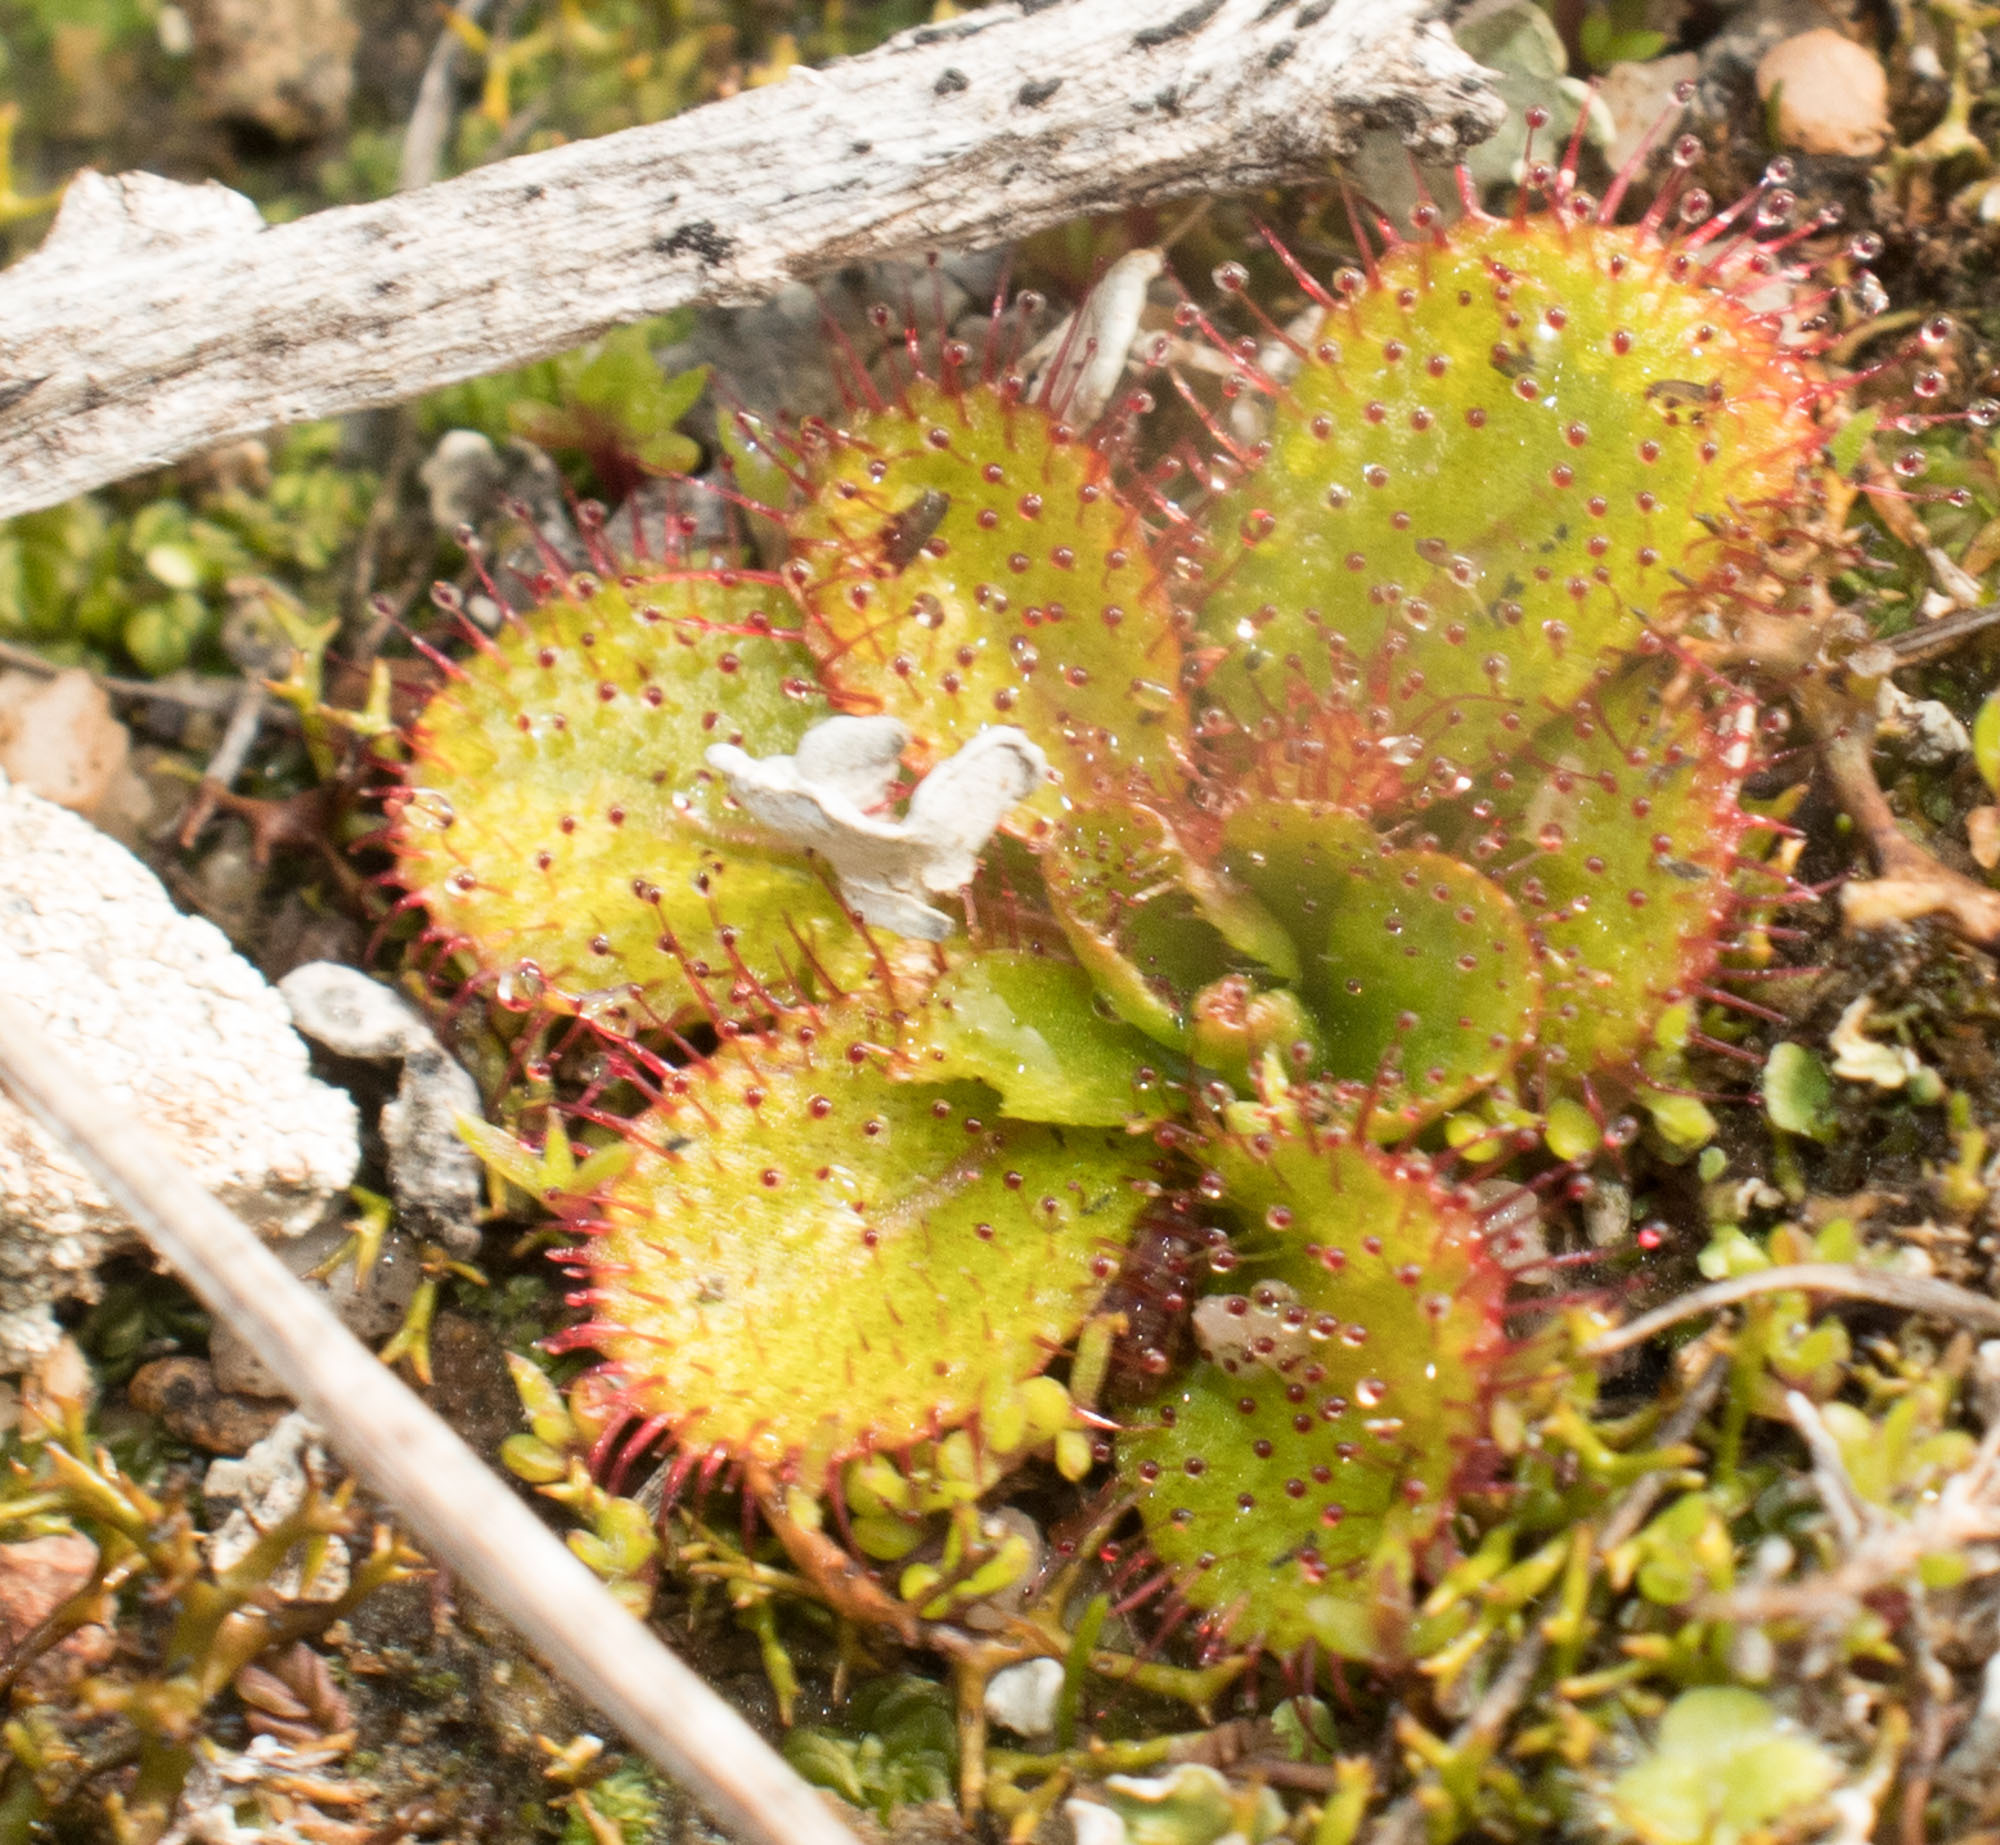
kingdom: Plantae
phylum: Tracheophyta
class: Magnoliopsida
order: Caryophyllales
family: Droseraceae
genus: Drosera
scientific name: Drosera tubaestylis
